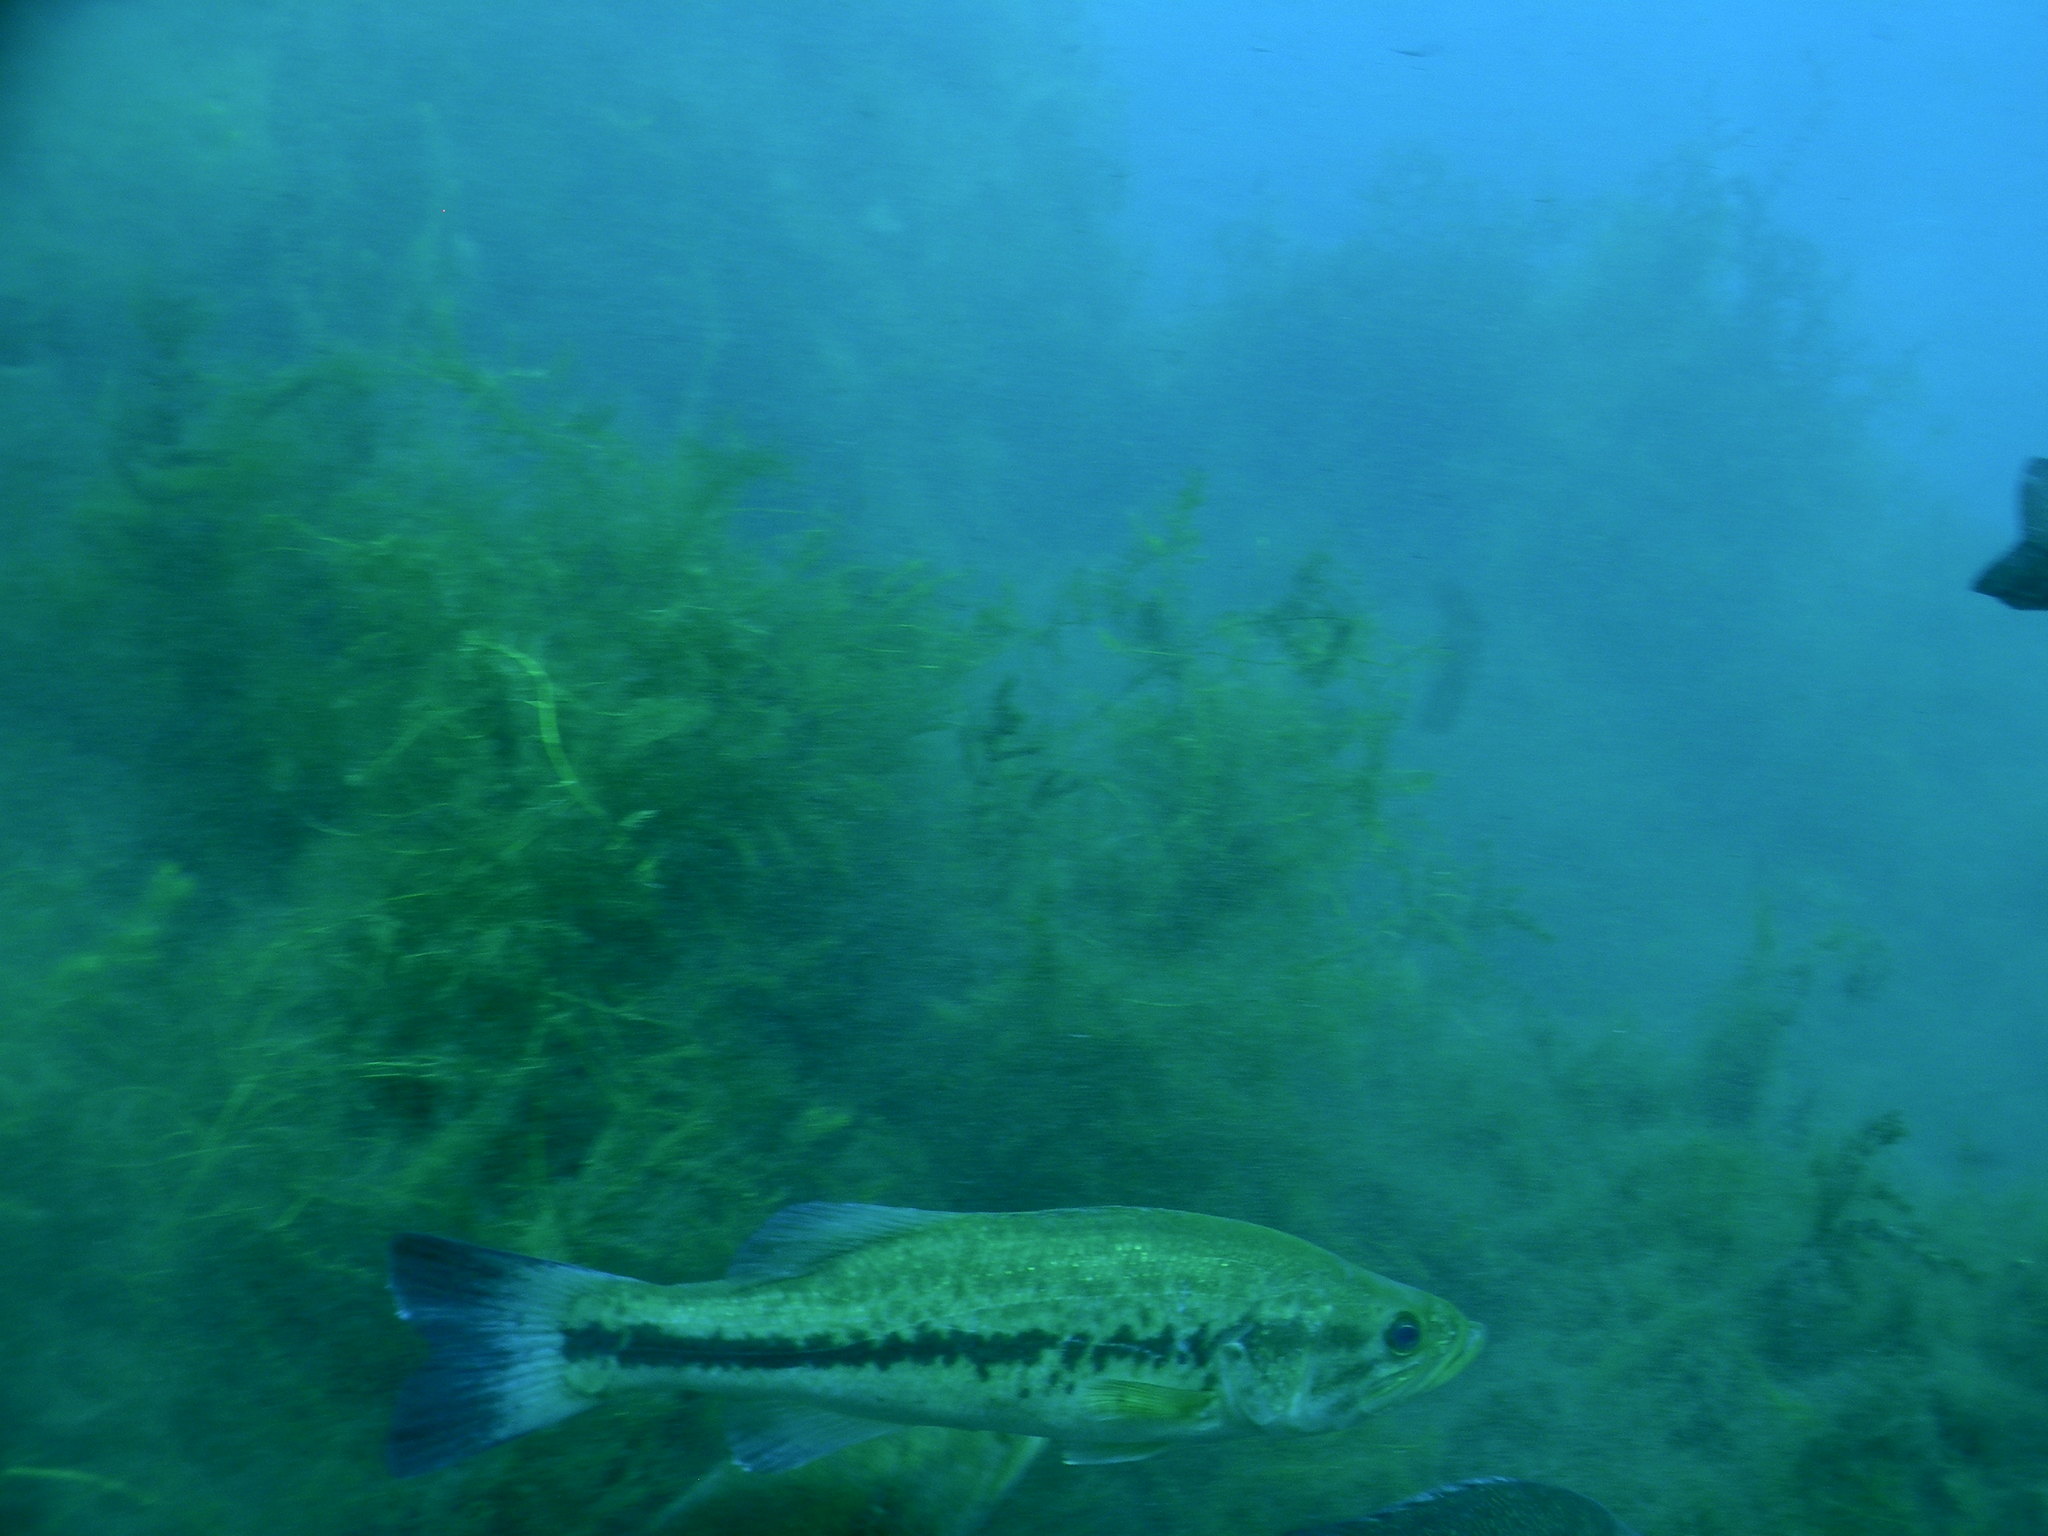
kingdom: Animalia
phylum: Chordata
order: Perciformes
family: Centrarchidae
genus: Micropterus
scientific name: Micropterus
